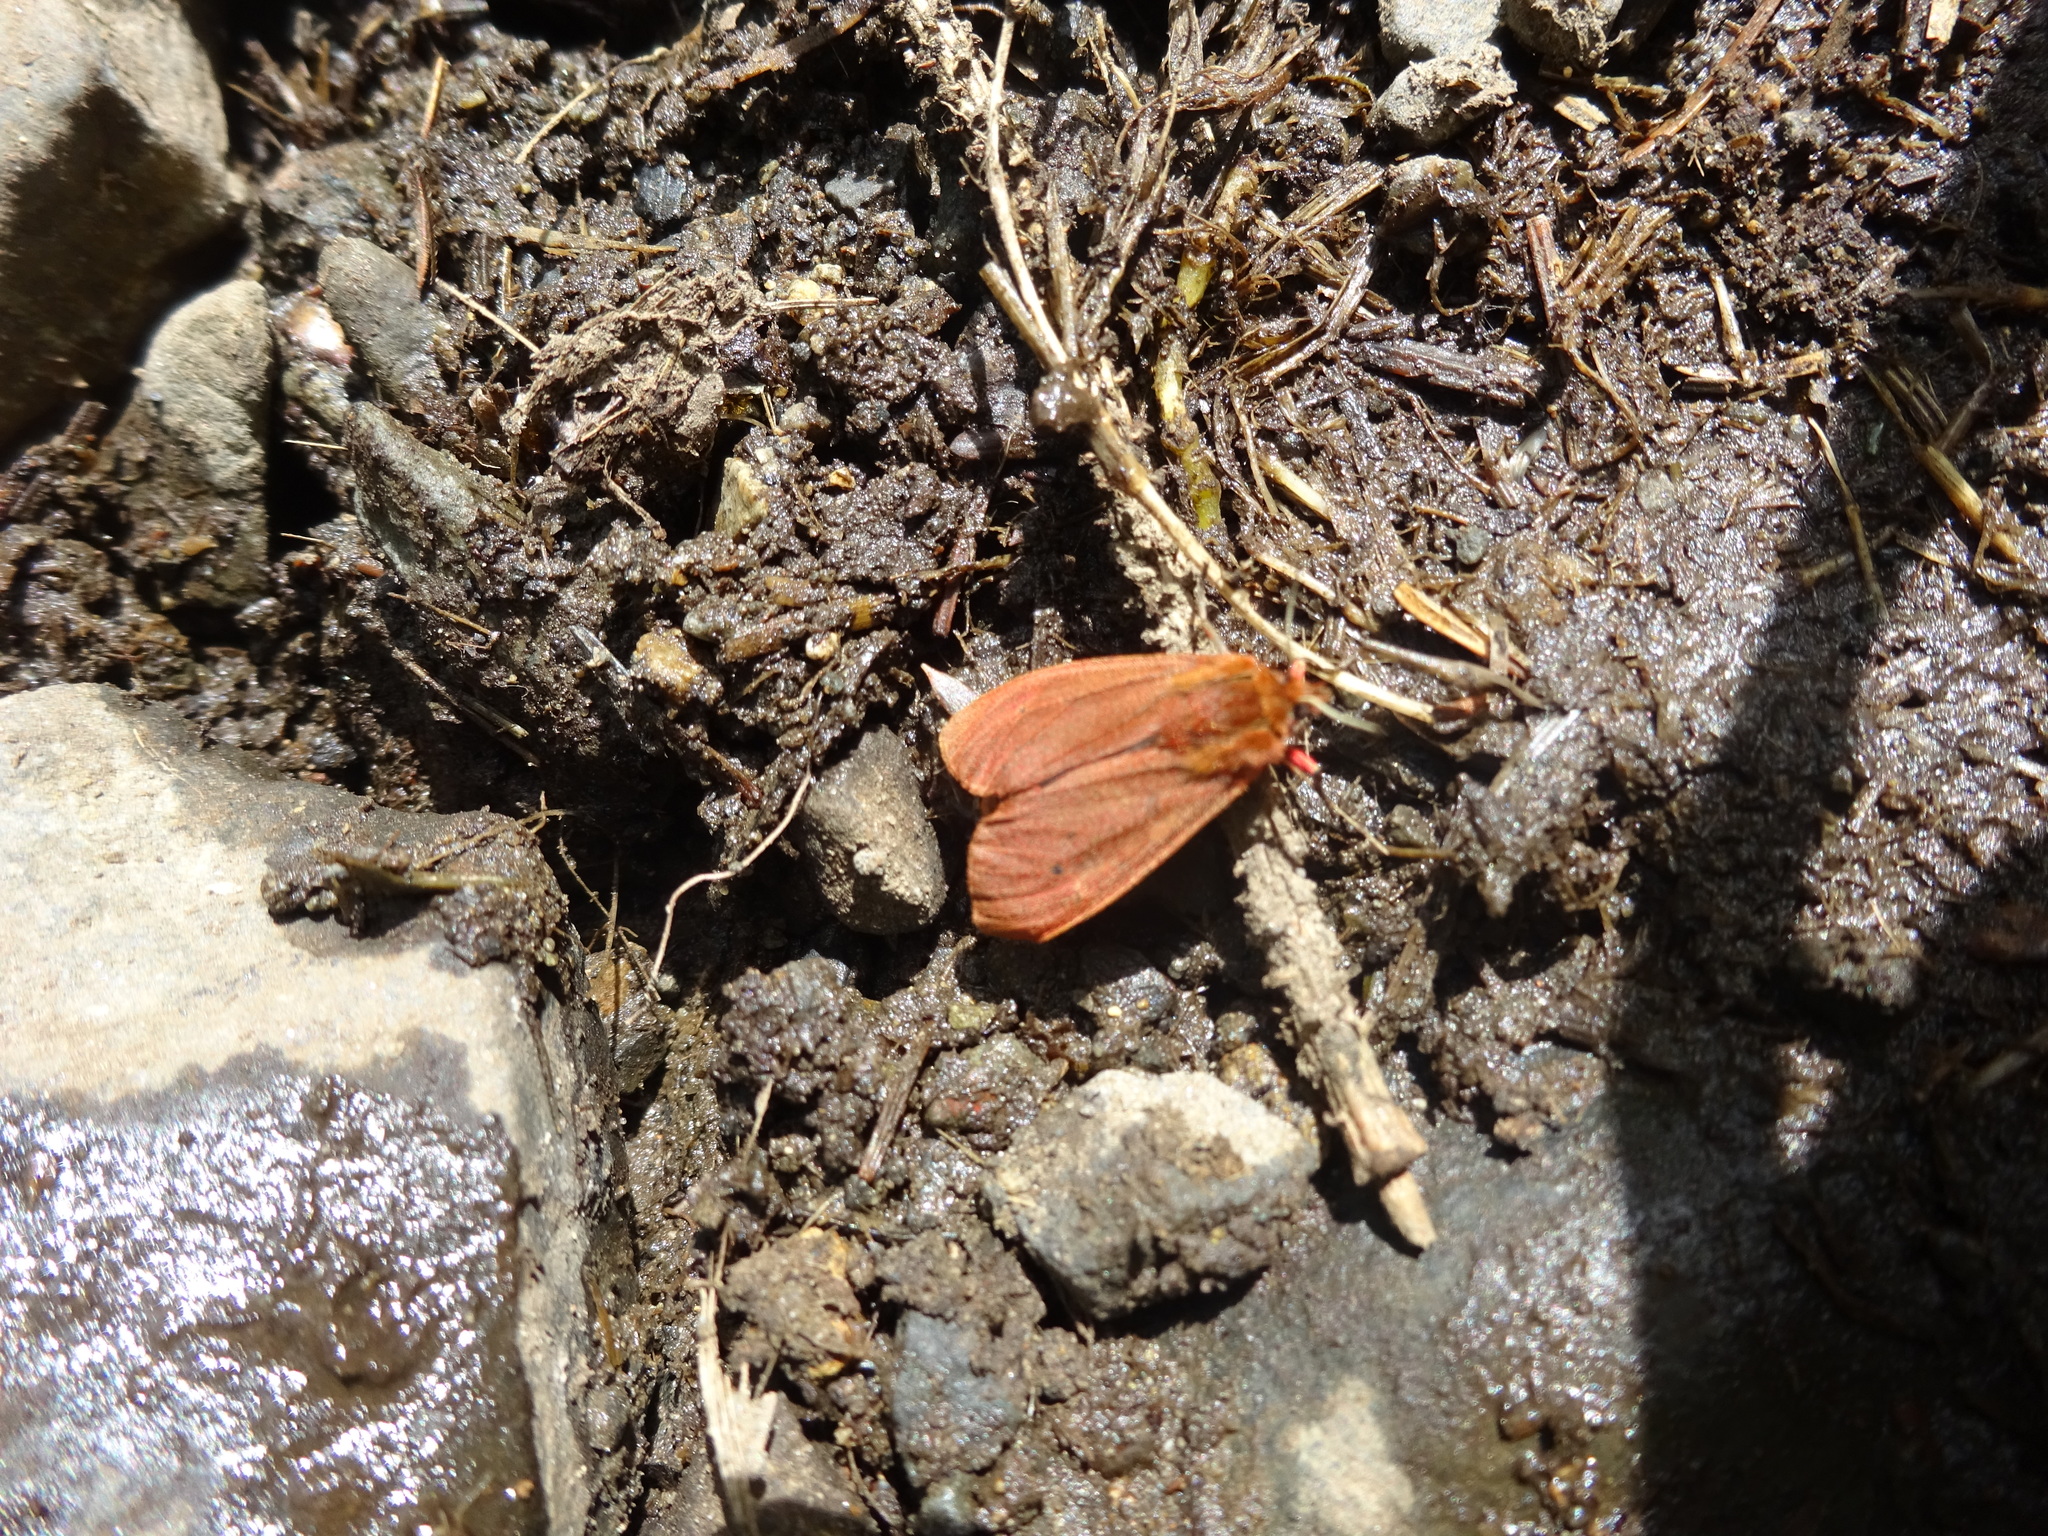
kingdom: Animalia
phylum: Arthropoda
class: Insecta
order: Lepidoptera
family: Erebidae
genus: Phragmatobia
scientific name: Phragmatobia fuliginosa
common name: Ruby tiger
